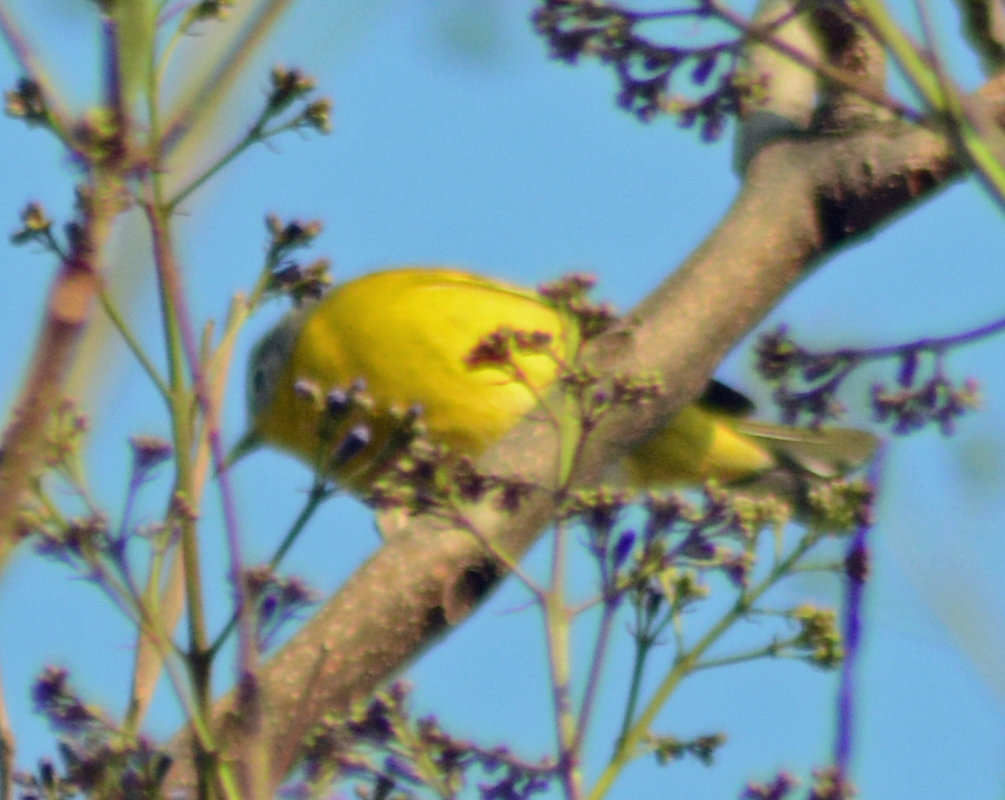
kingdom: Animalia
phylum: Chordata
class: Aves
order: Passeriformes
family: Parulidae
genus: Leiothlypis
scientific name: Leiothlypis ruficapilla
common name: Nashville warbler
